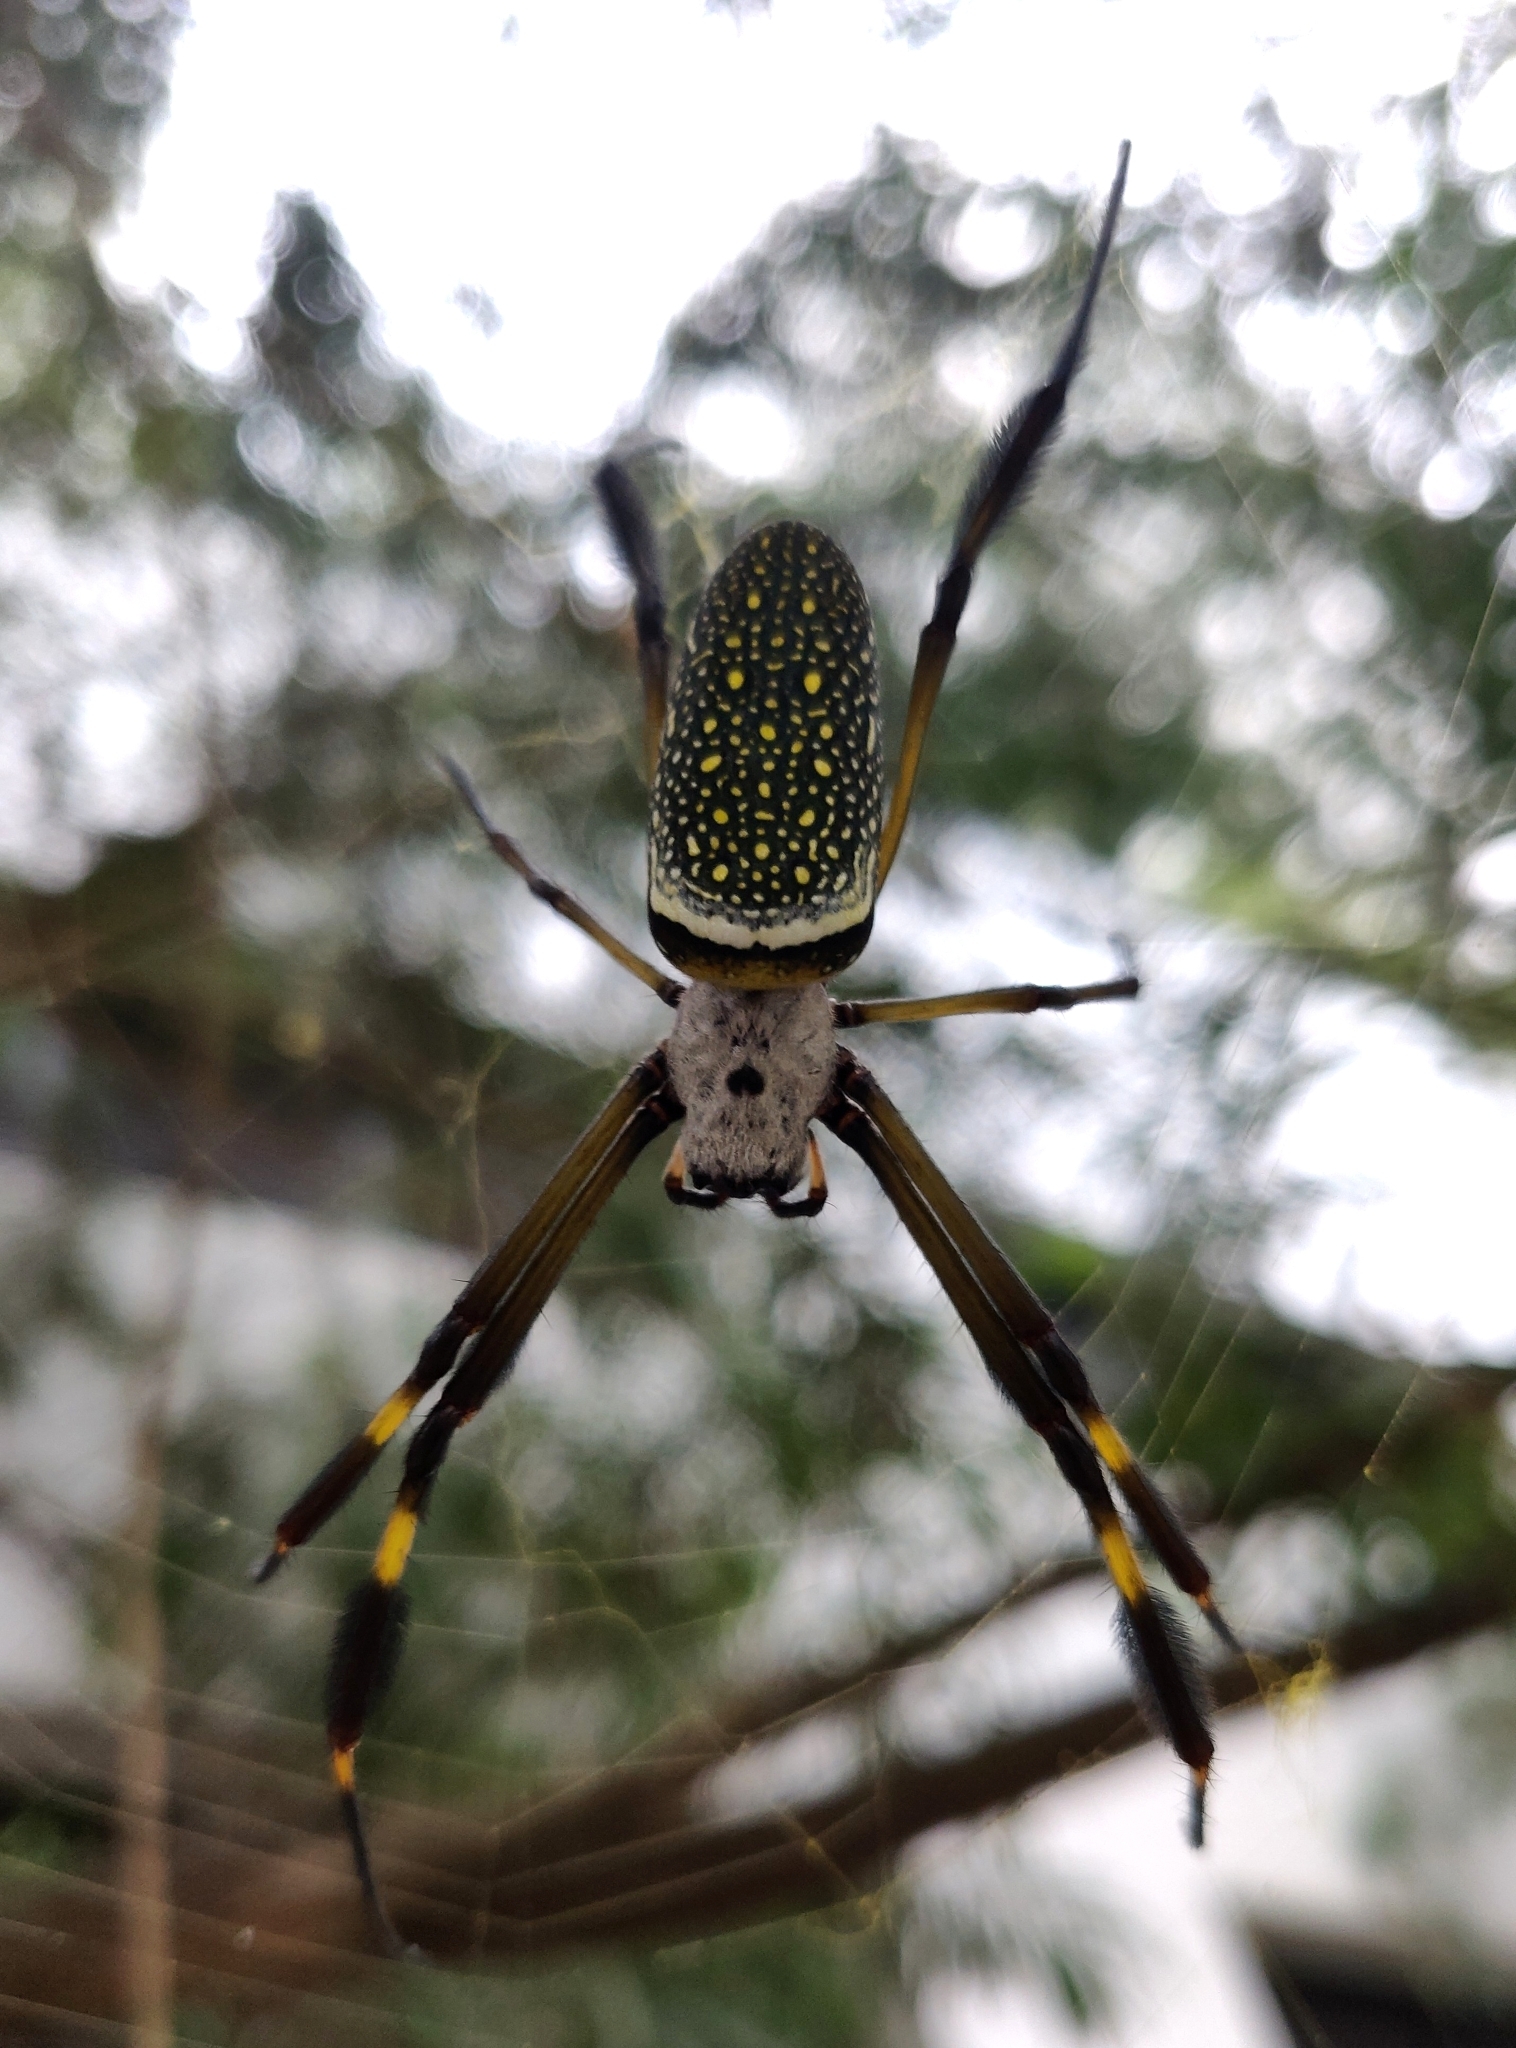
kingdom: Animalia
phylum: Arthropoda
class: Arachnida
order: Araneae
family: Araneidae
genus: Trichonephila
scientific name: Trichonephila clavipes
